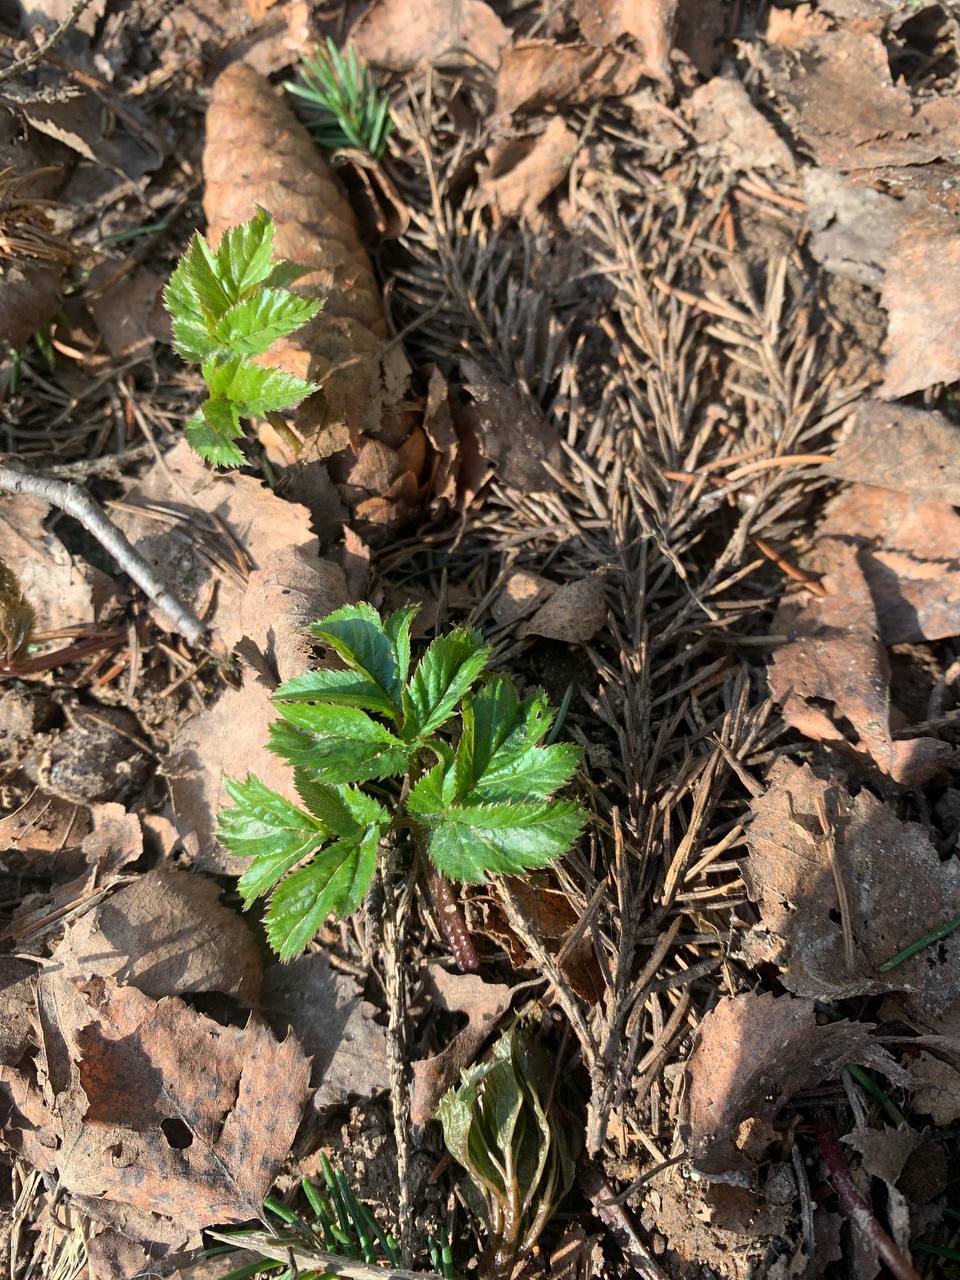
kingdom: Plantae
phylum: Tracheophyta
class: Magnoliopsida
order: Apiales
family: Apiaceae
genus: Aegopodium
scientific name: Aegopodium podagraria
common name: Ground-elder
